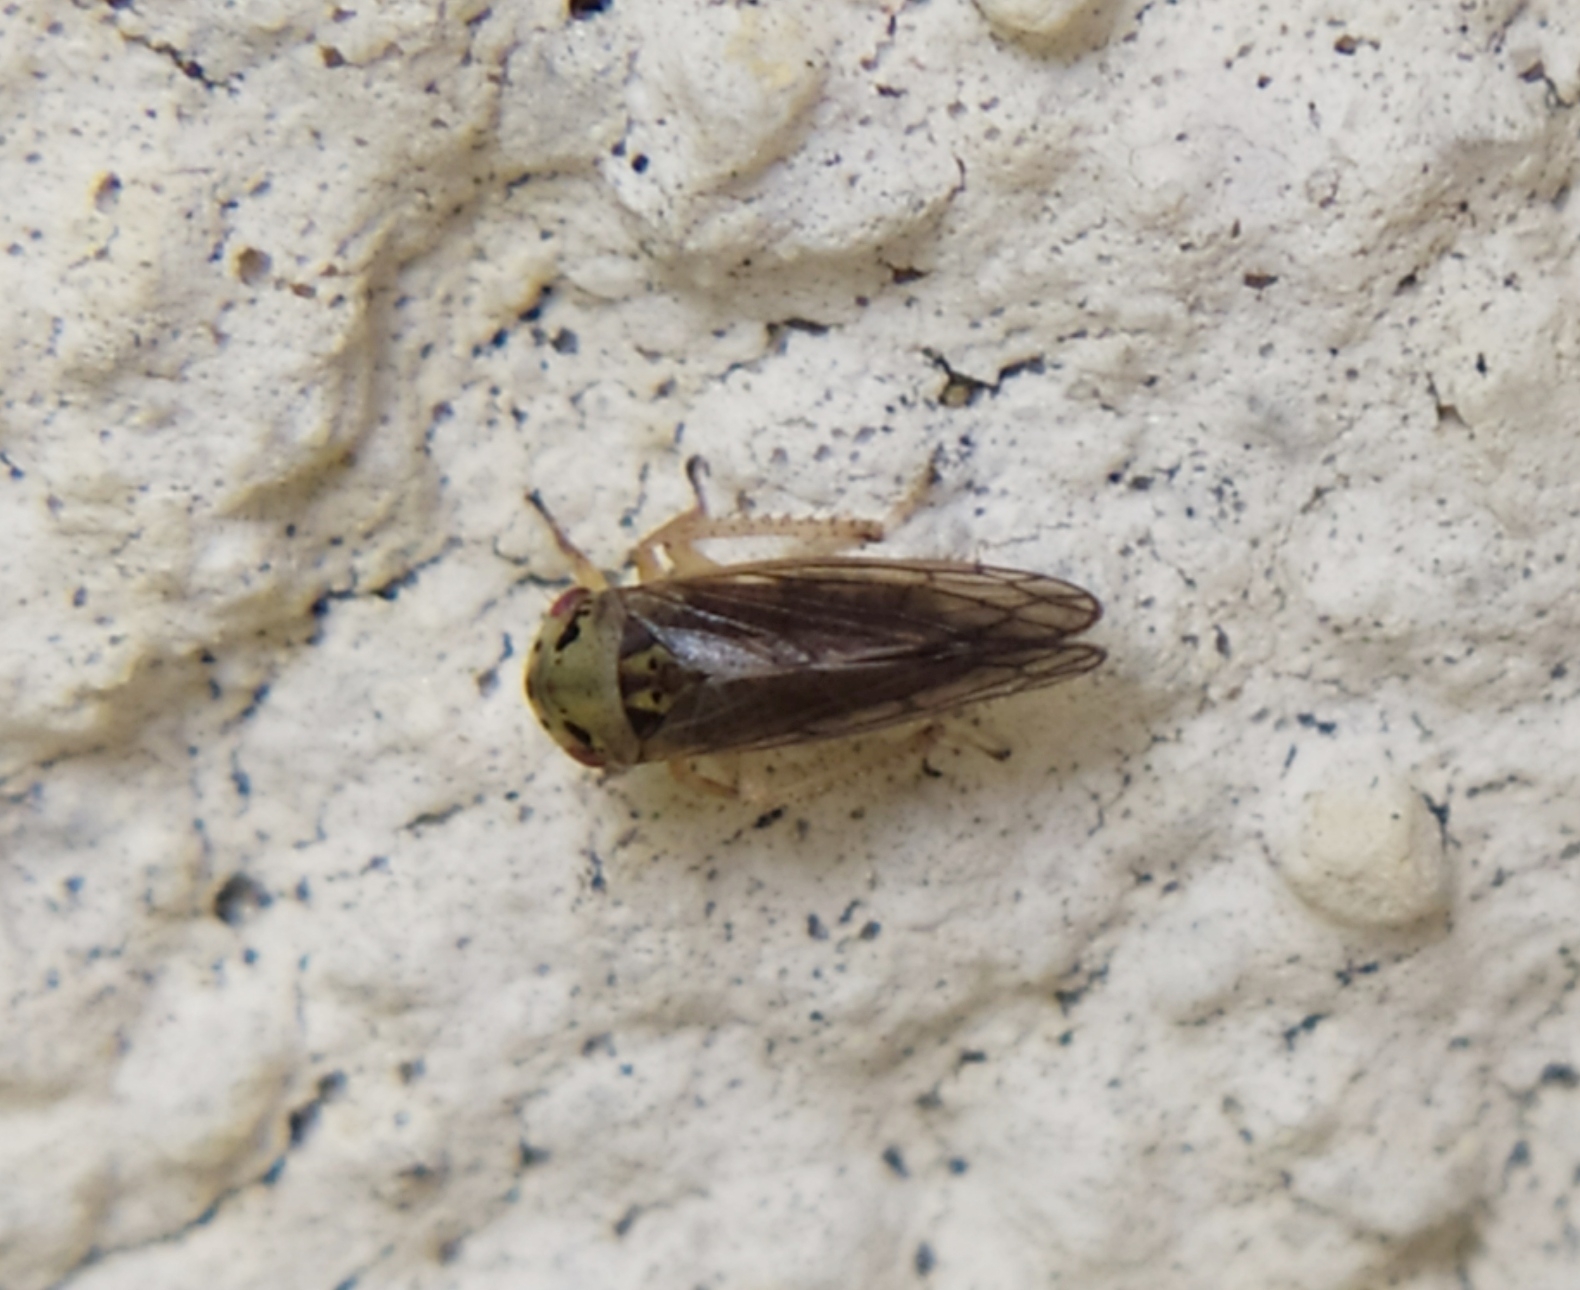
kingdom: Animalia
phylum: Arthropoda
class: Insecta
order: Hemiptera
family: Cicadellidae
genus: Oncopsis
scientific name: Oncopsis carpini
